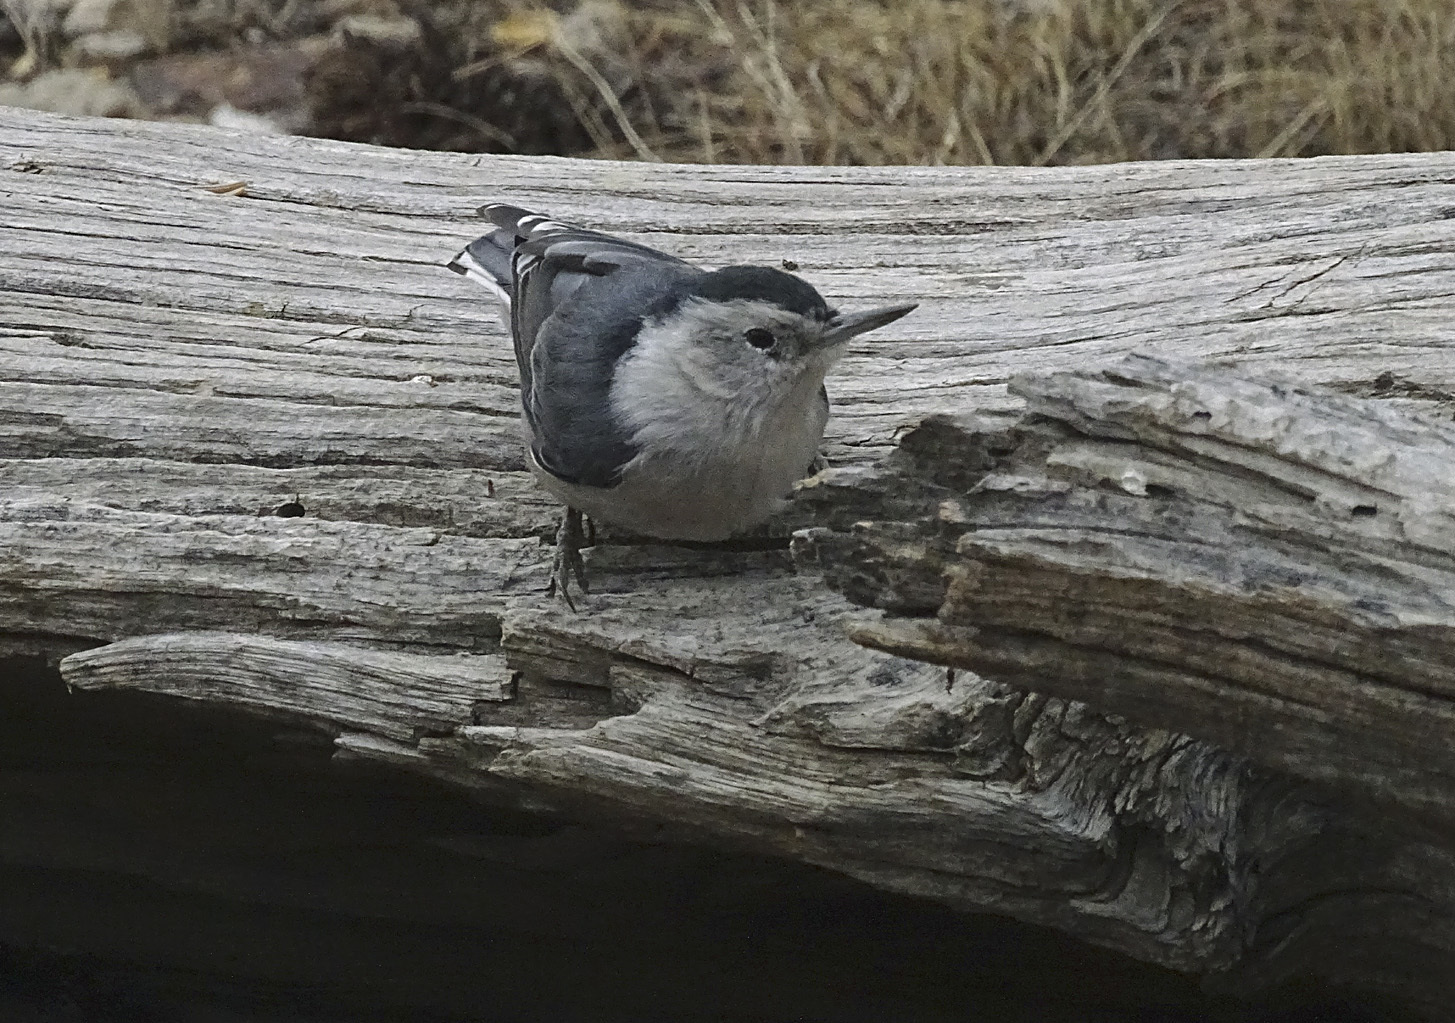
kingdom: Animalia
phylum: Chordata
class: Aves
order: Passeriformes
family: Sittidae
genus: Sitta
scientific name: Sitta carolinensis
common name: White-breasted nuthatch
